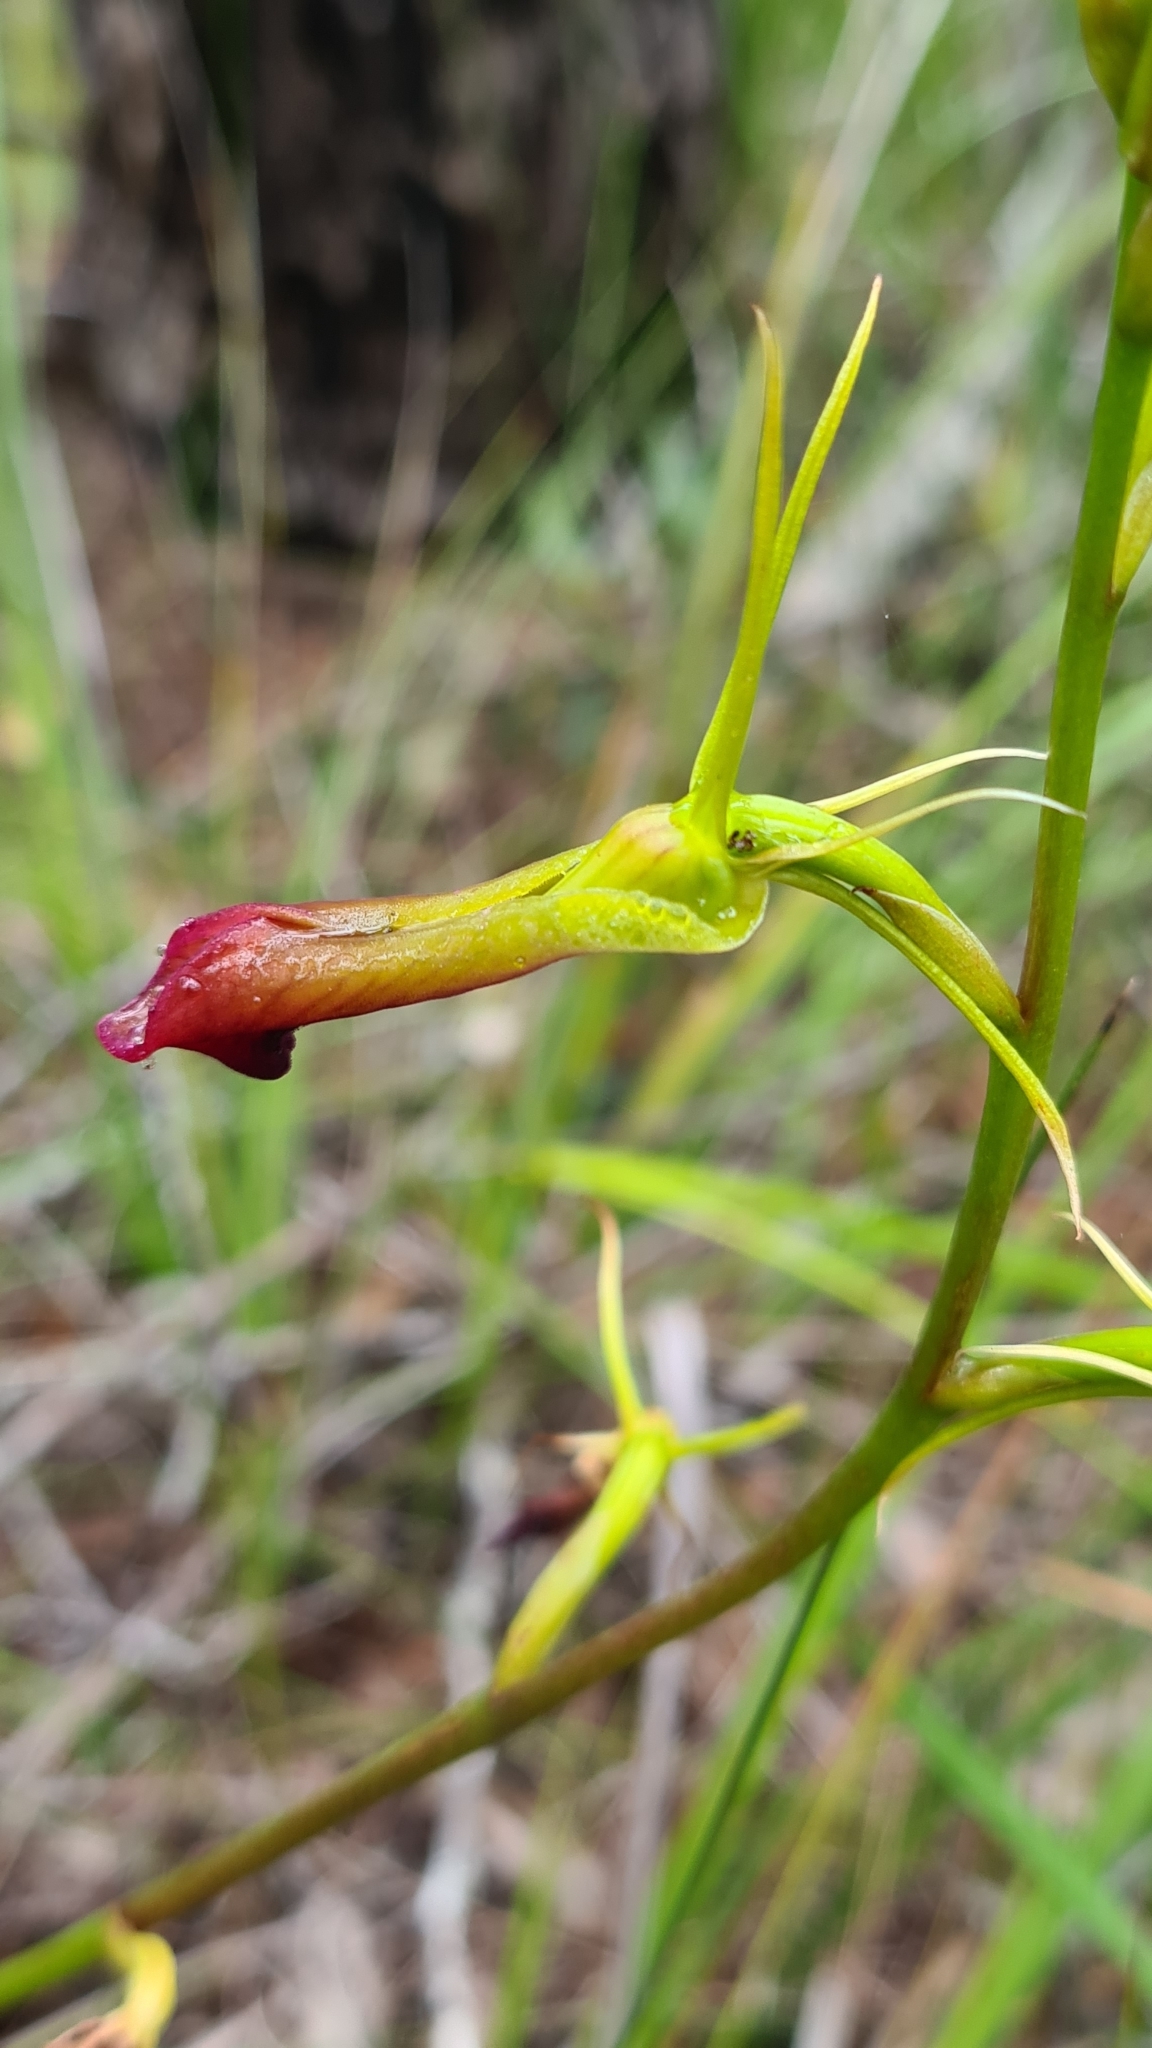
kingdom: Plantae
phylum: Tracheophyta
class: Liliopsida
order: Asparagales
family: Orchidaceae
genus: Cryptostylis
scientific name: Cryptostylis subulata
